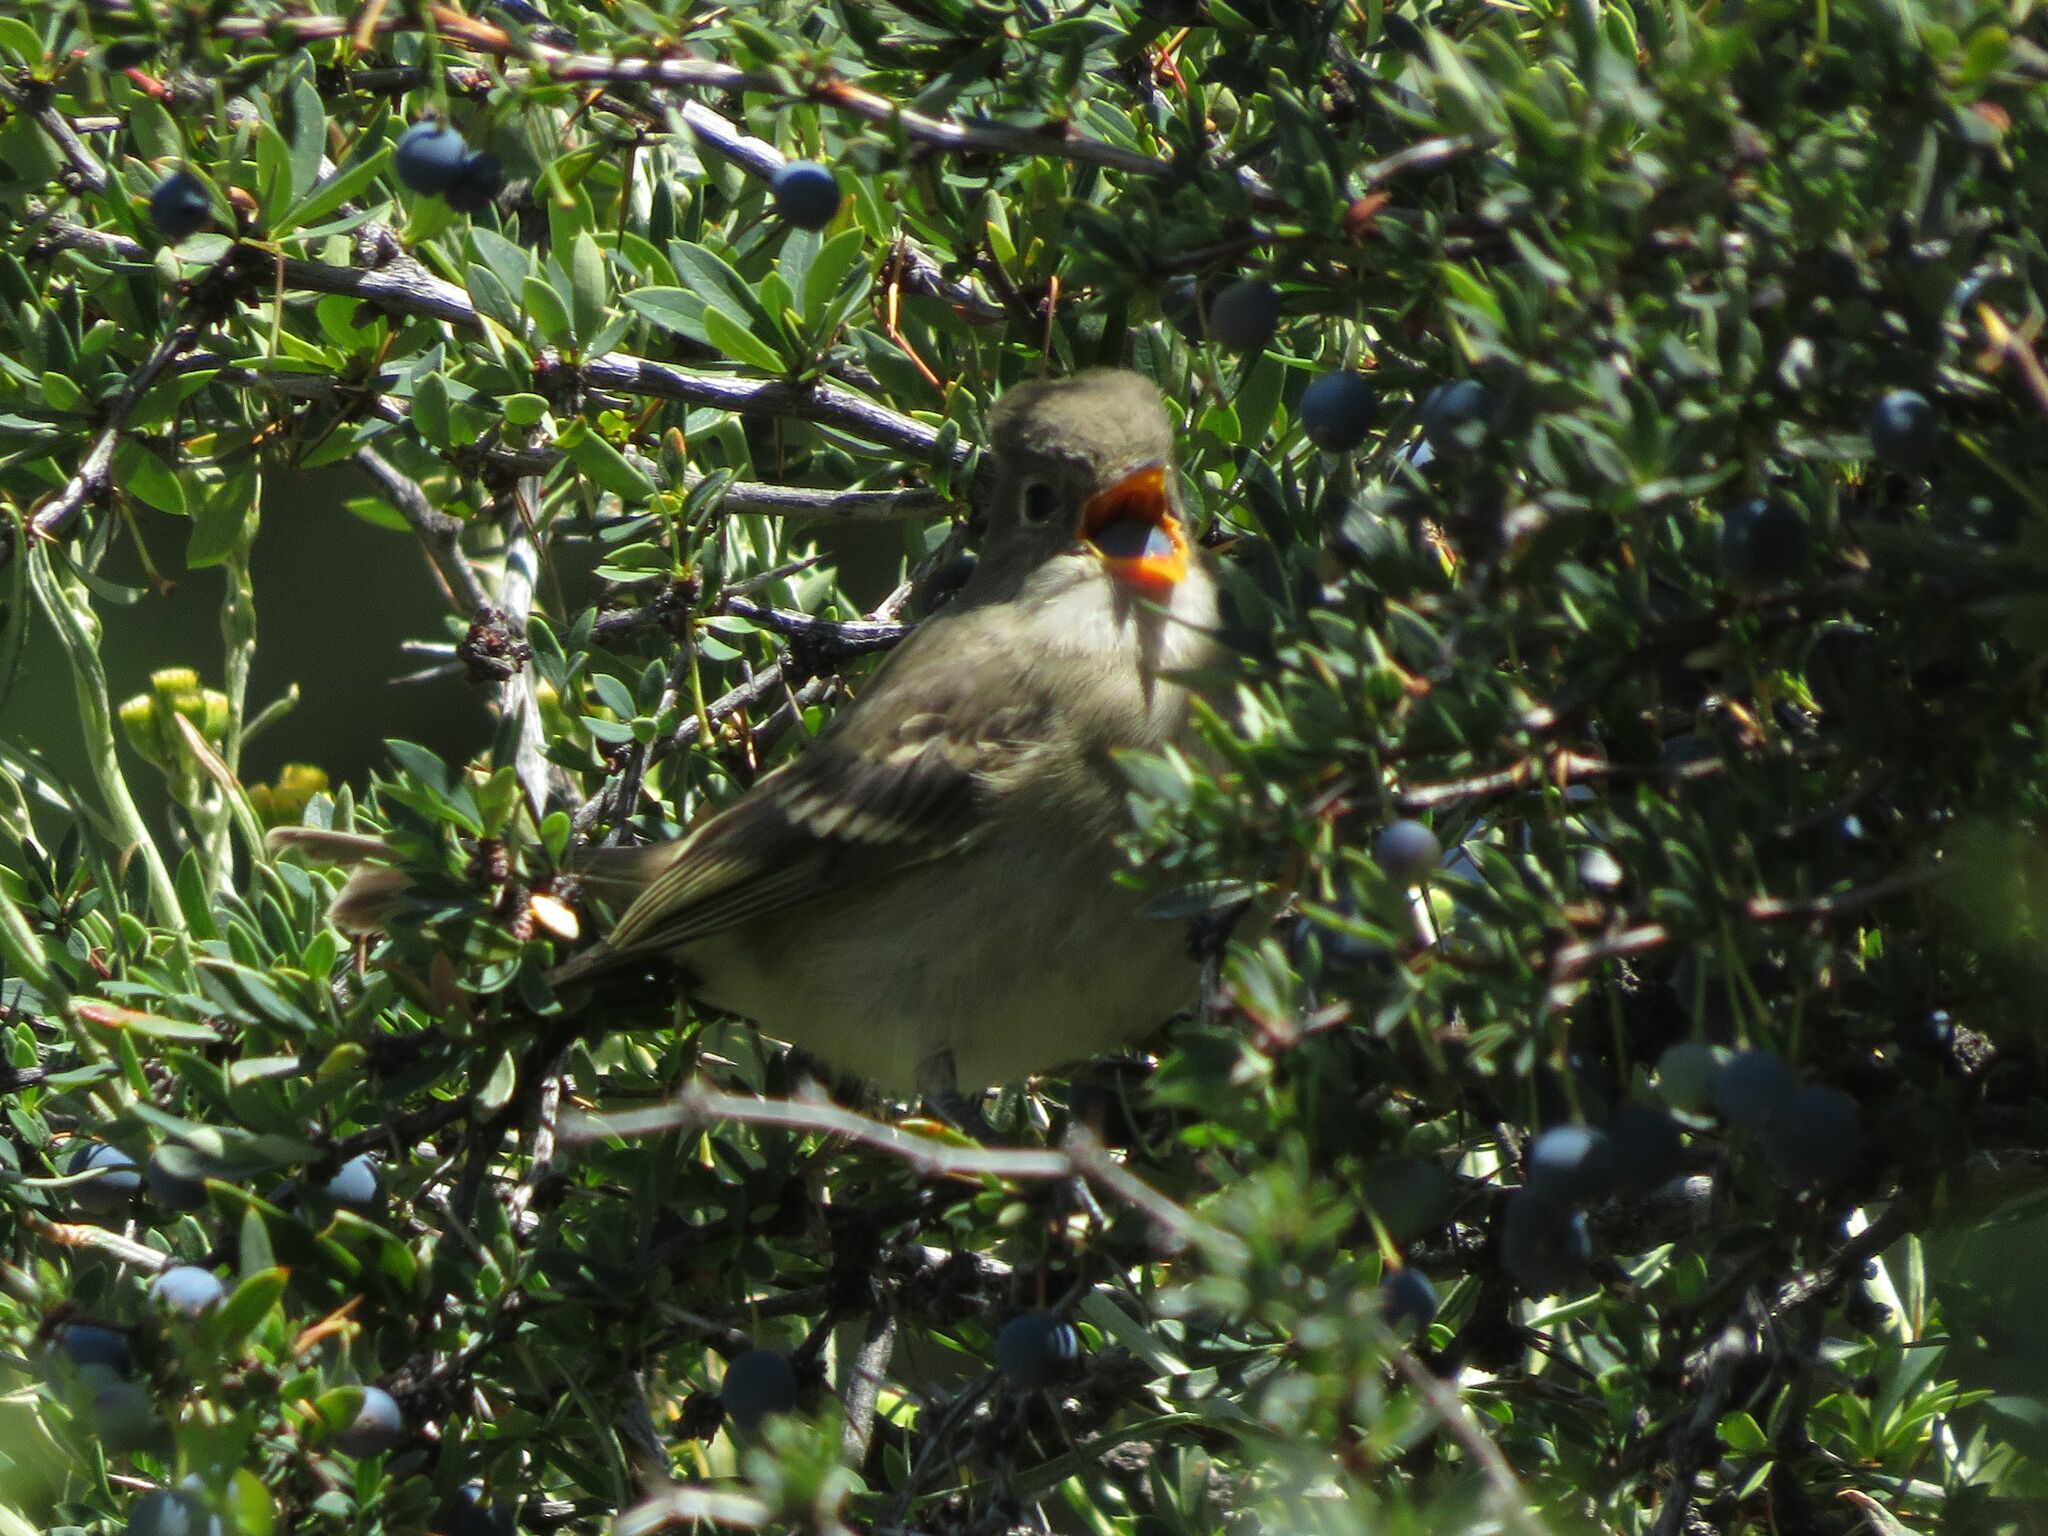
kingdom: Animalia
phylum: Chordata
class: Aves
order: Passeriformes
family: Tyrannidae
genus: Elaenia
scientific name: Elaenia albiceps
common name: White-crested elaenia
